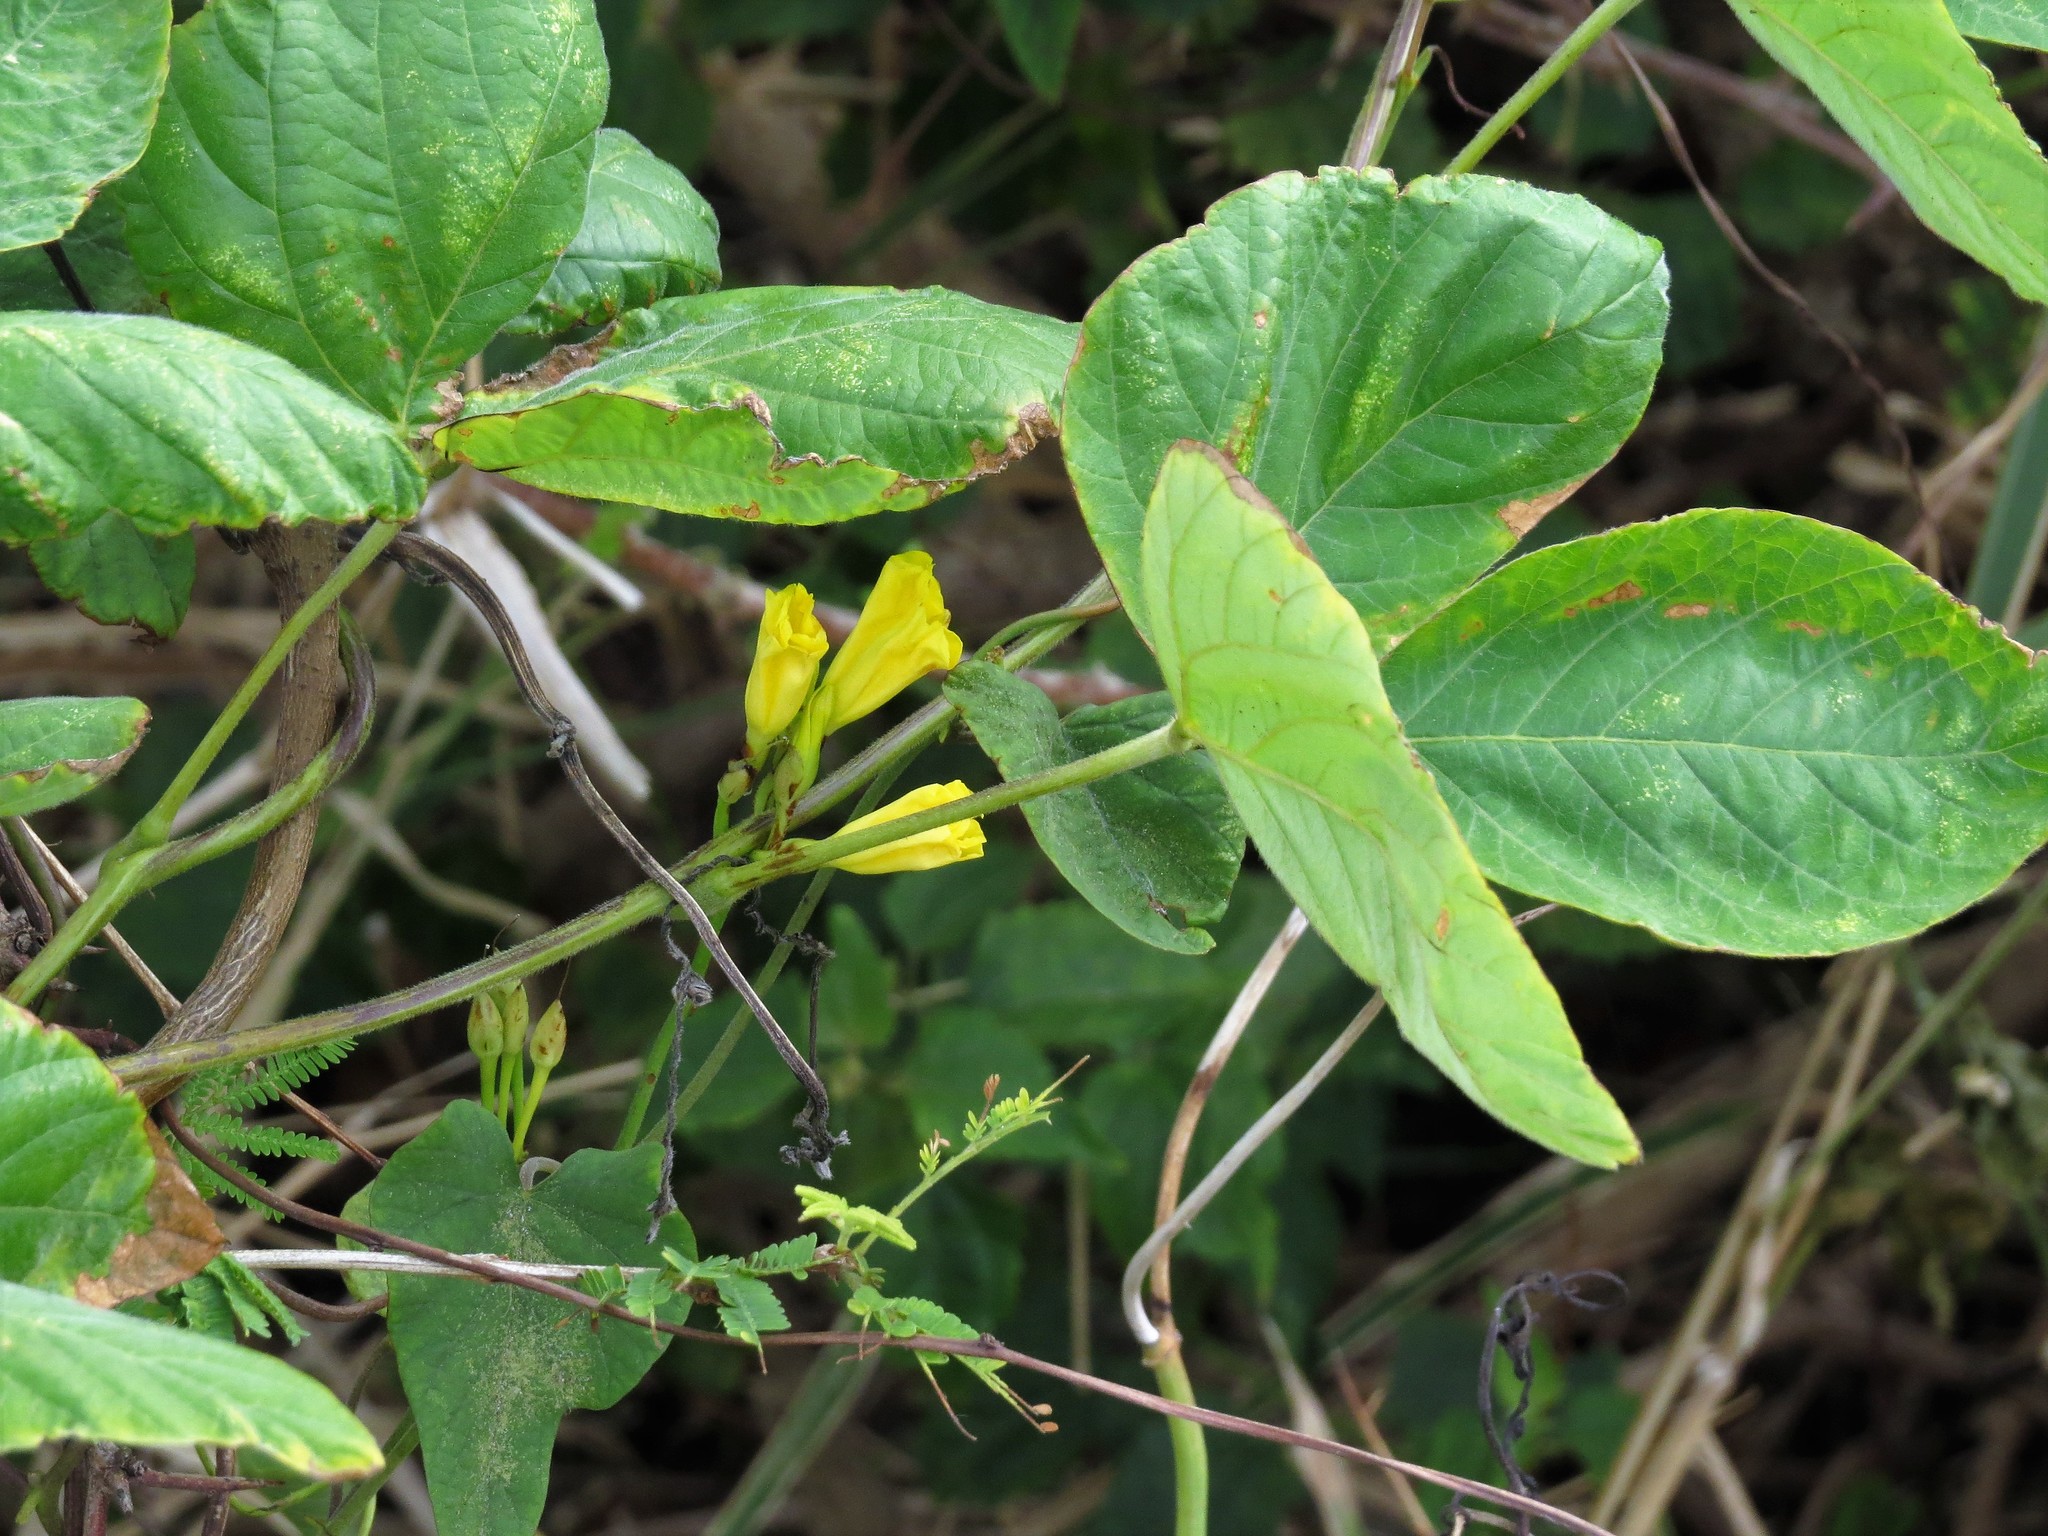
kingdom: Plantae
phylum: Tracheophyta
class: Magnoliopsida
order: Solanales
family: Convolvulaceae
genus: Camonea
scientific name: Camonea umbellata
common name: Hogvine
